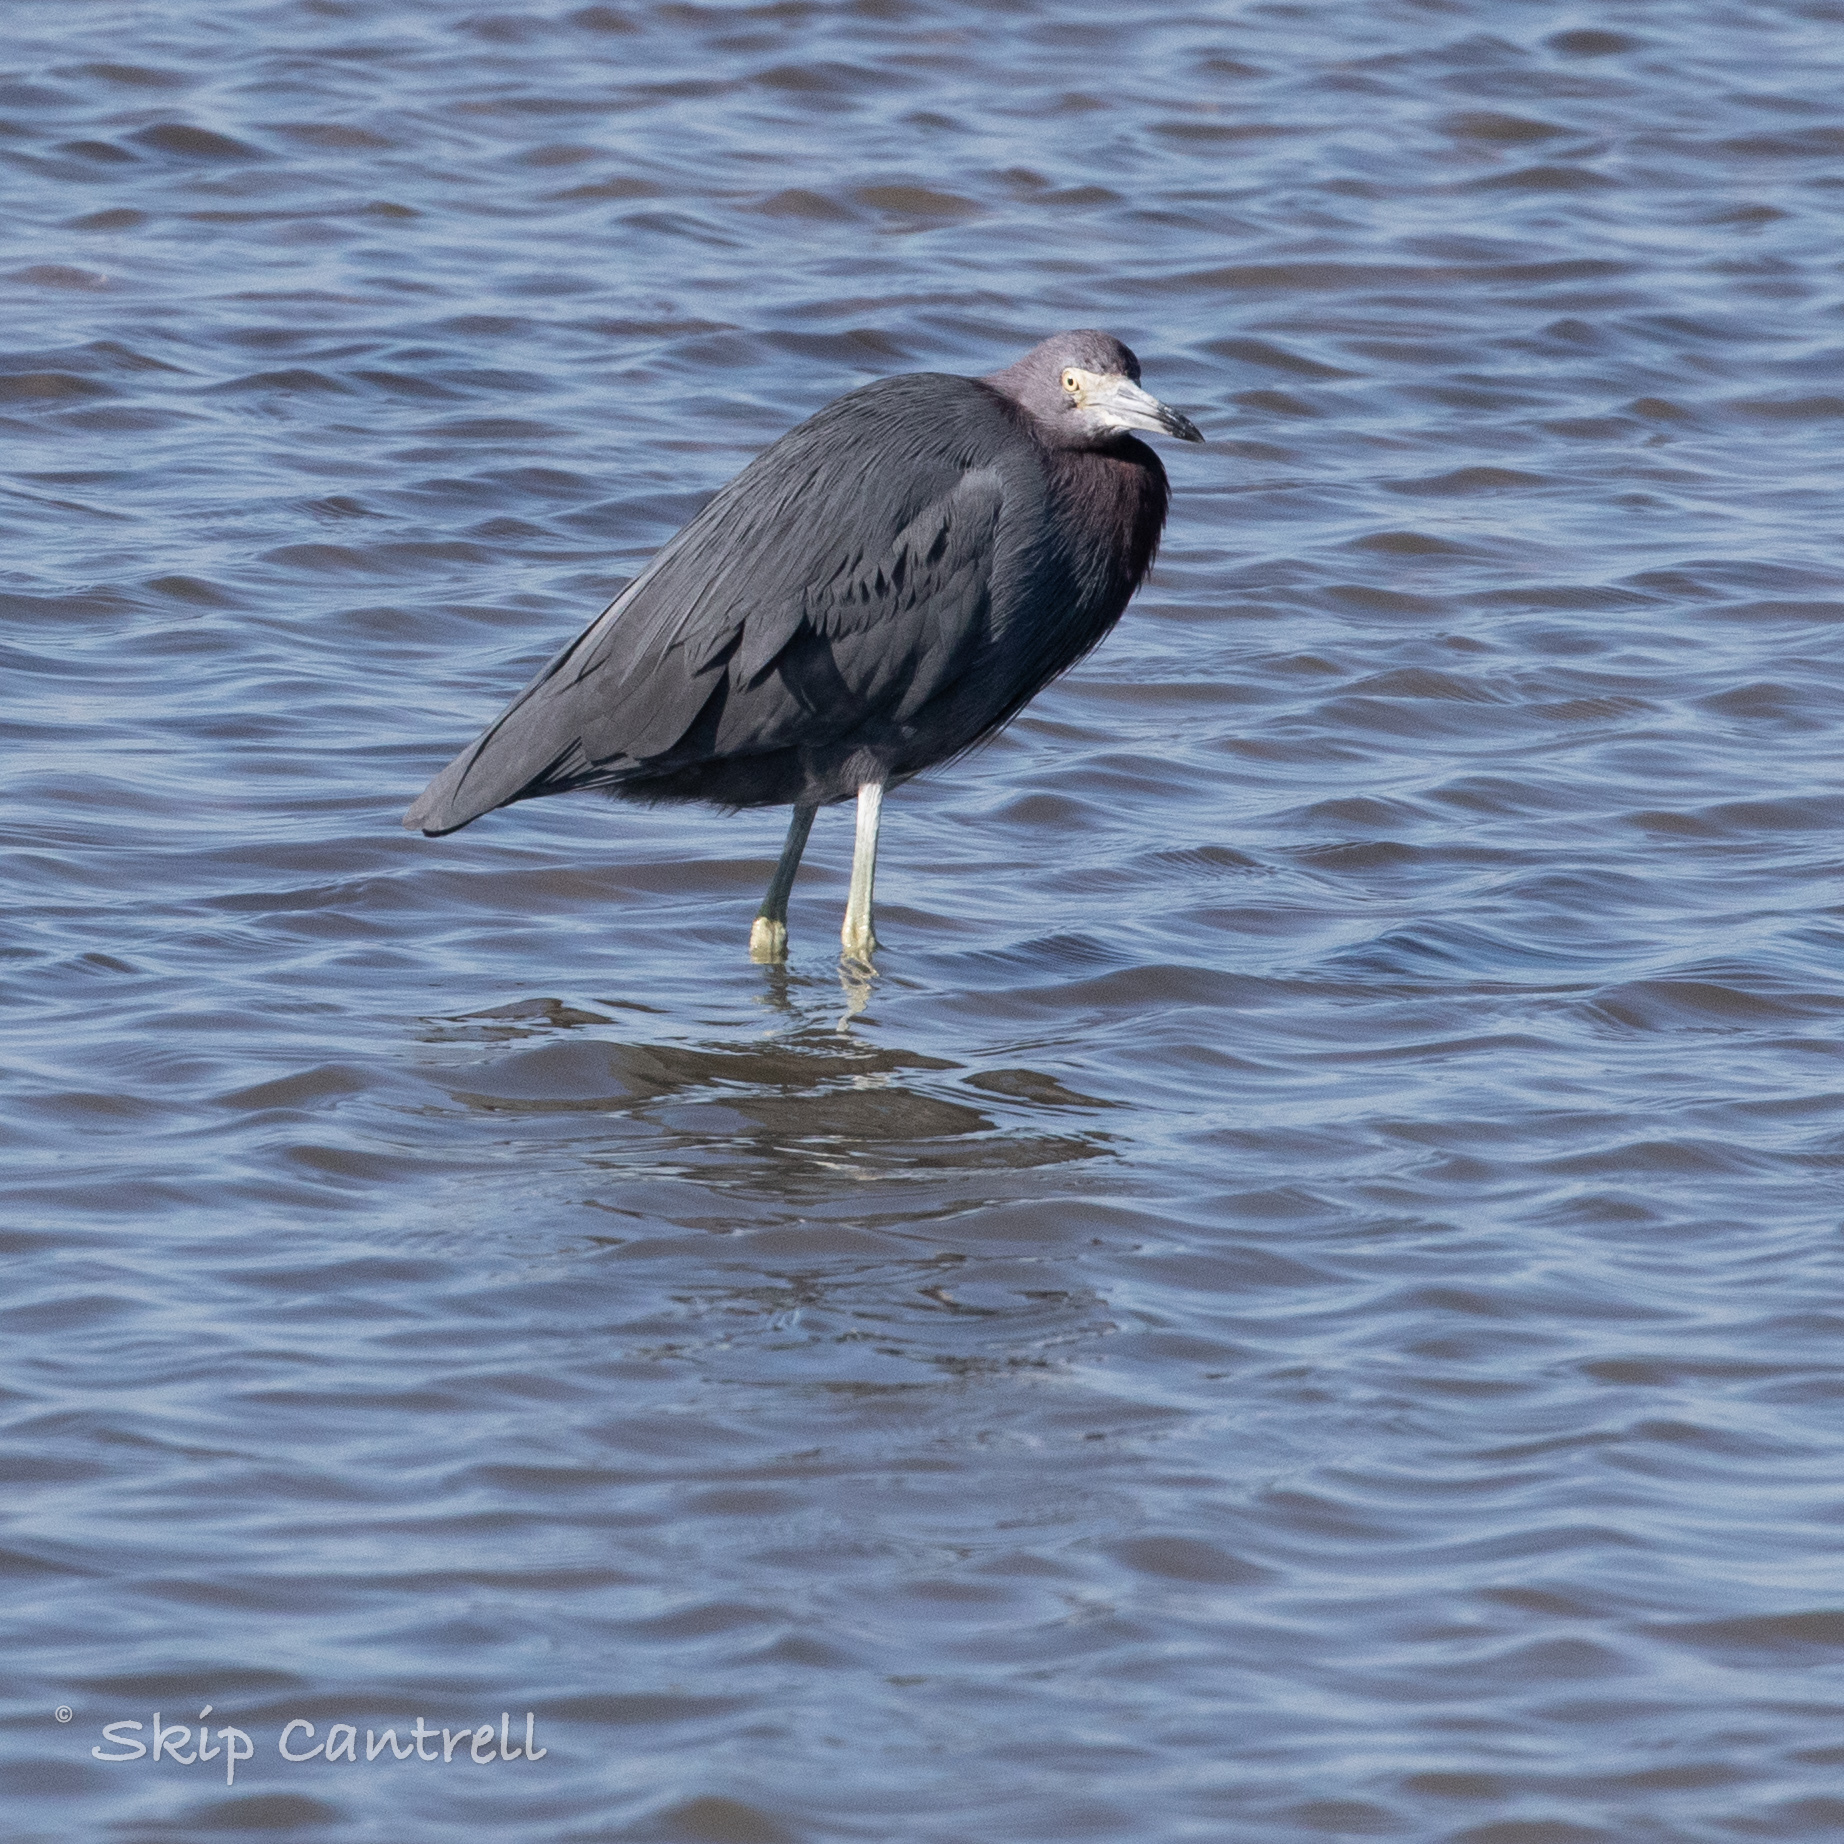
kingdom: Animalia
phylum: Chordata
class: Aves
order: Pelecaniformes
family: Ardeidae
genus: Egretta
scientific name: Egretta caerulea
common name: Little blue heron
